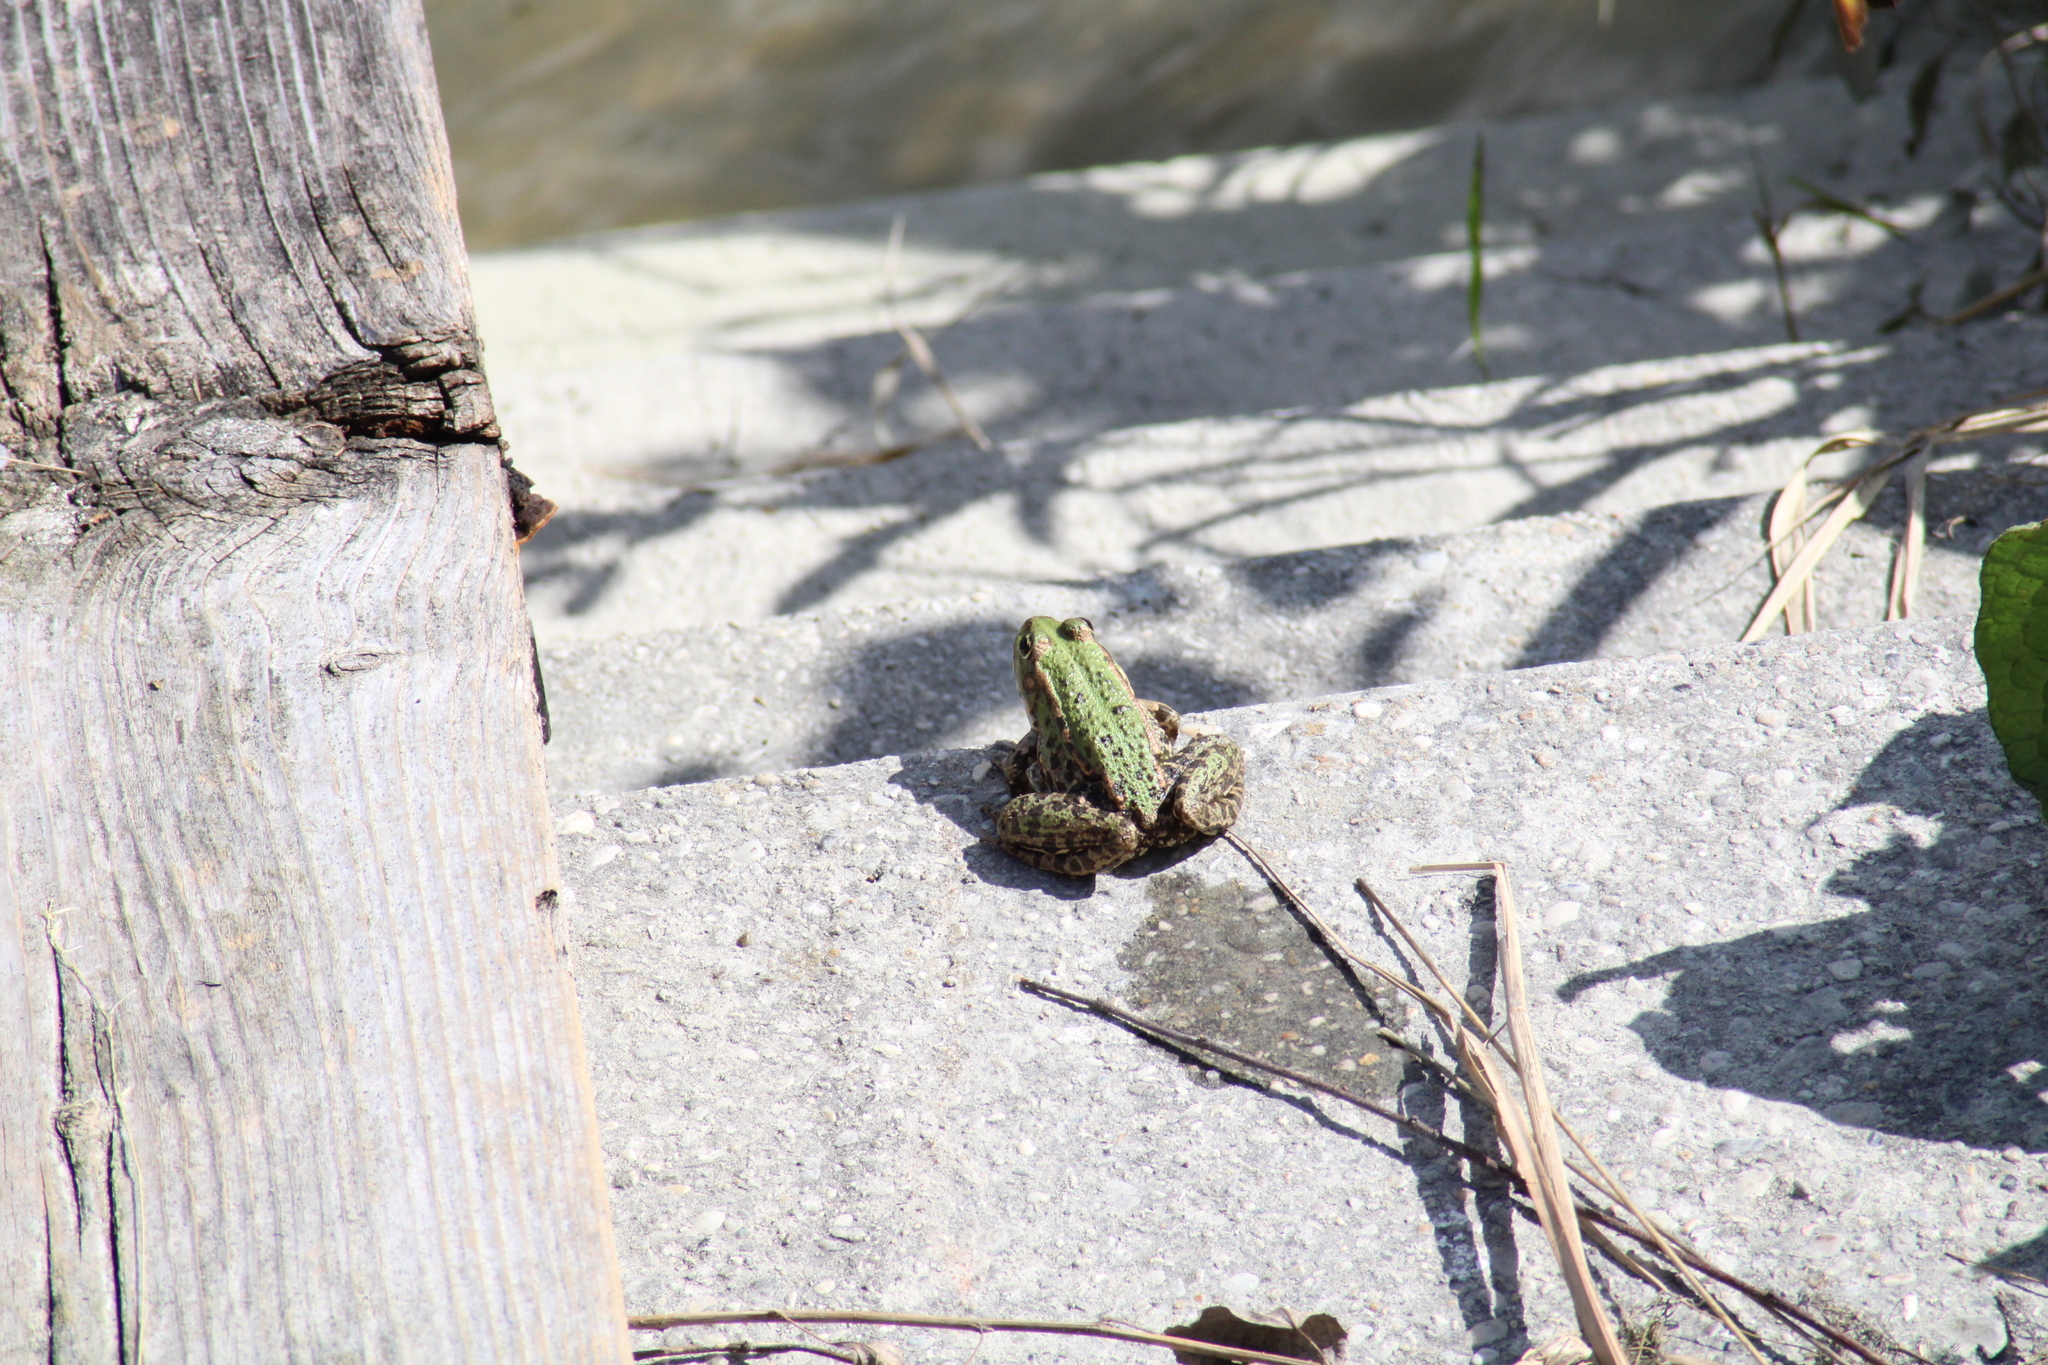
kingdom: Animalia
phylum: Chordata
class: Amphibia
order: Anura
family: Ranidae
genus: Pelophylax
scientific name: Pelophylax
